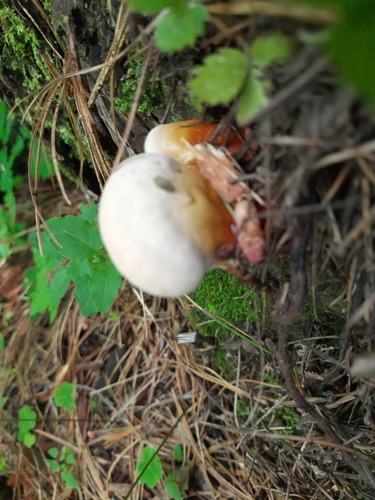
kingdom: Fungi
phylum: Basidiomycota
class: Agaricomycetes
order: Polyporales
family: Polyporaceae
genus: Ganoderma
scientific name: Ganoderma lucidum
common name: Lacquered bracket
